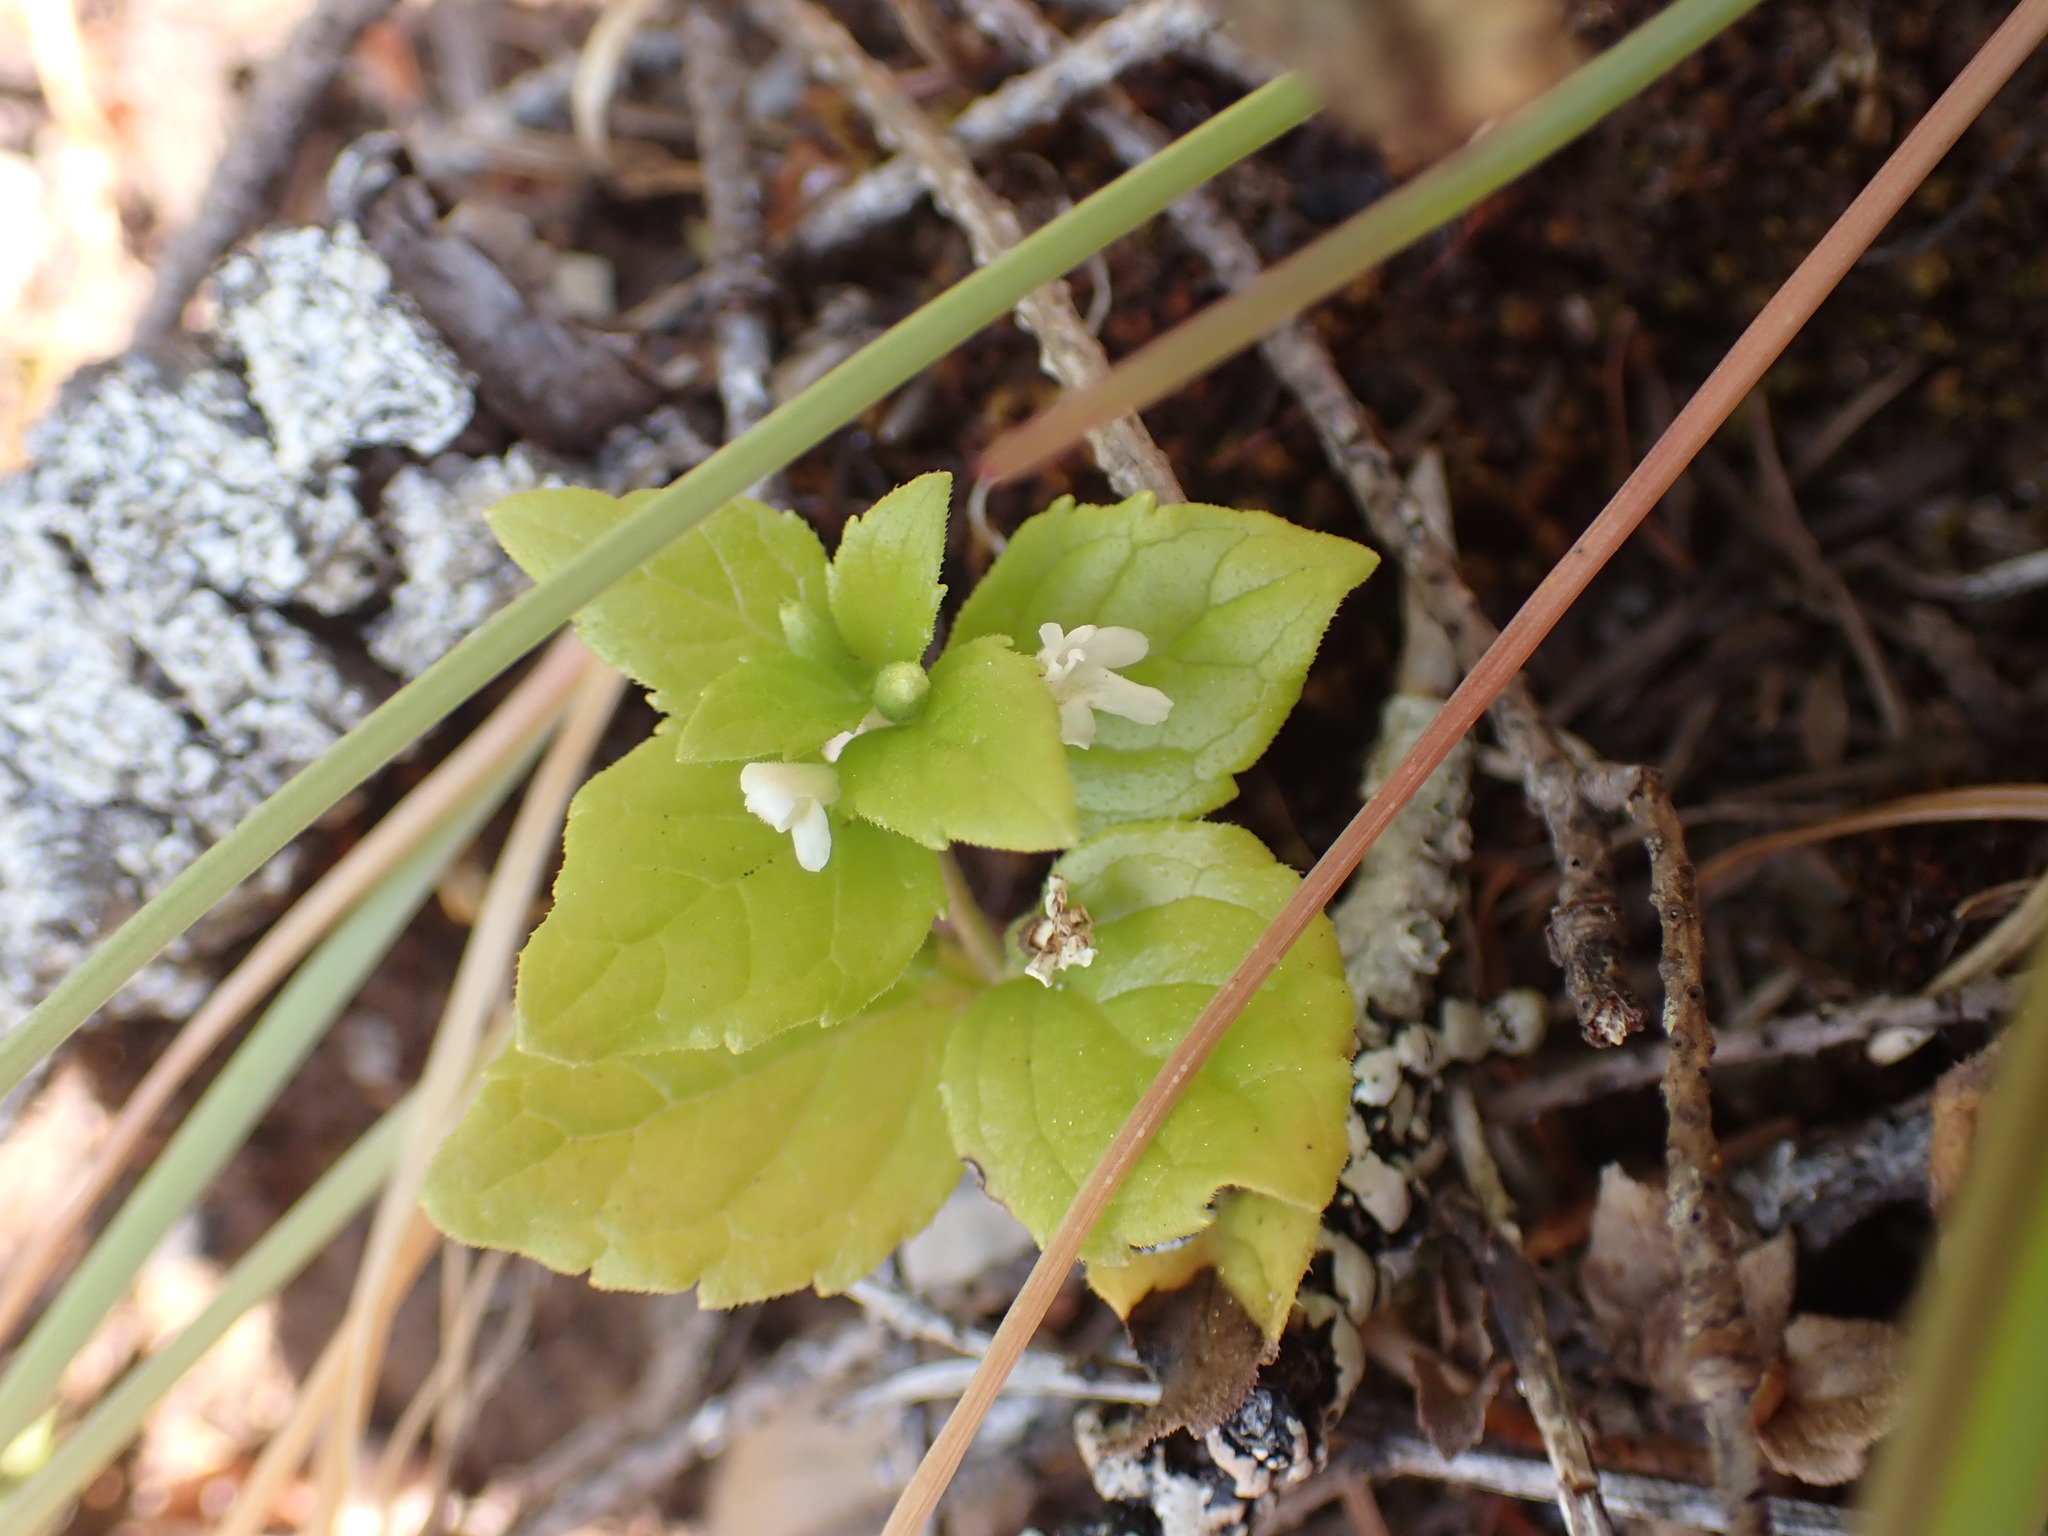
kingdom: Plantae
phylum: Tracheophyta
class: Magnoliopsida
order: Lamiales
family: Lamiaceae
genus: Micromeria
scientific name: Micromeria douglasii
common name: Yerba buena
